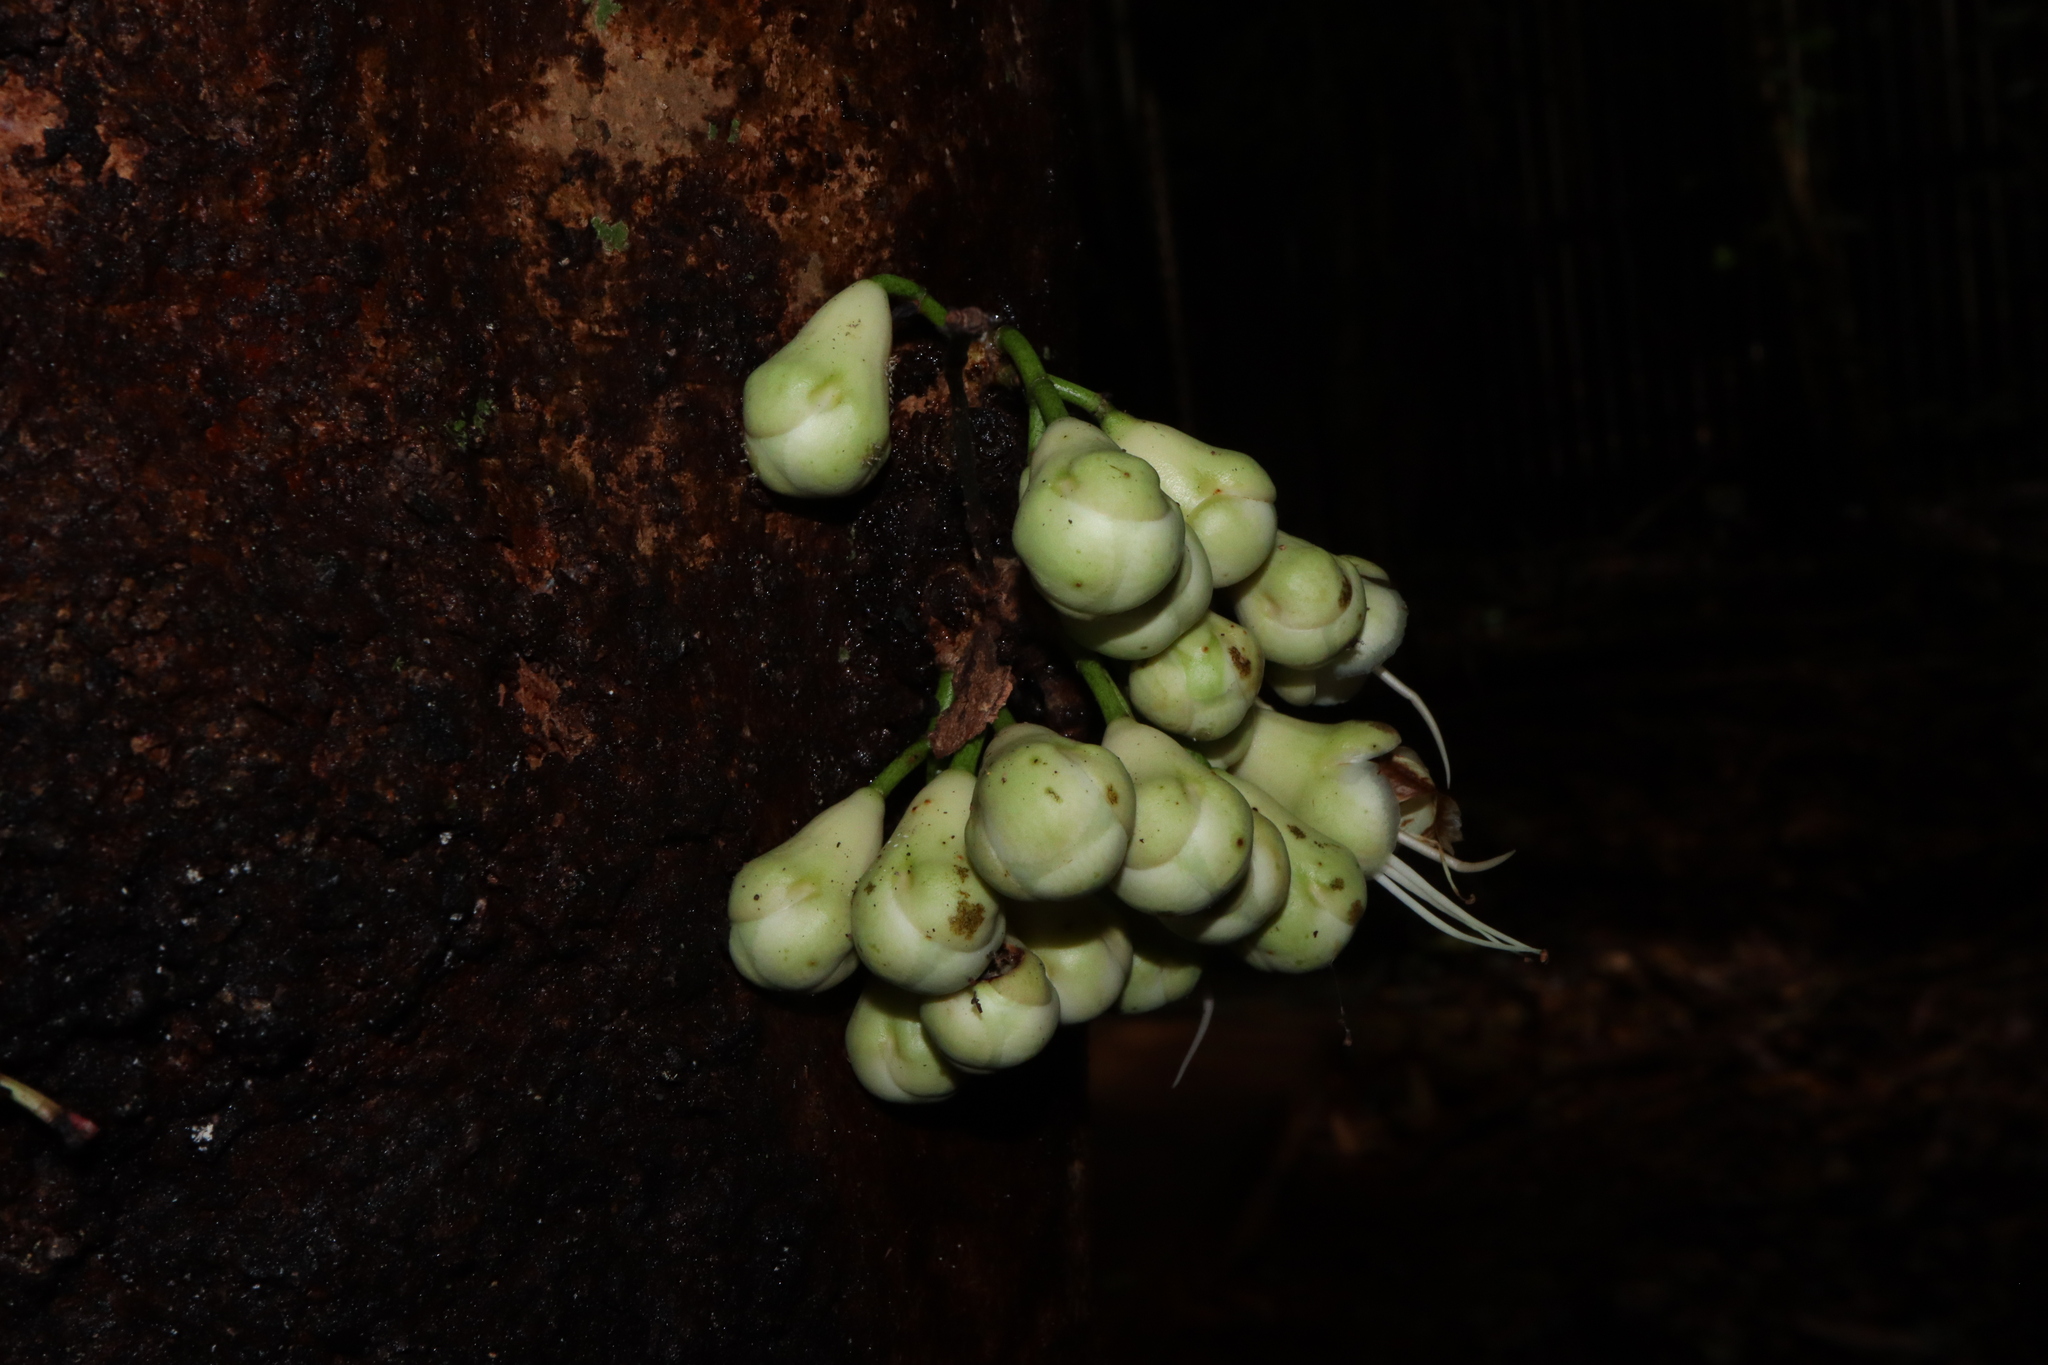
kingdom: Plantae
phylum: Tracheophyta
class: Magnoliopsida
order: Myrtales
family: Myrtaceae
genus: Syzygium
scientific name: Syzygium cormiflorum
